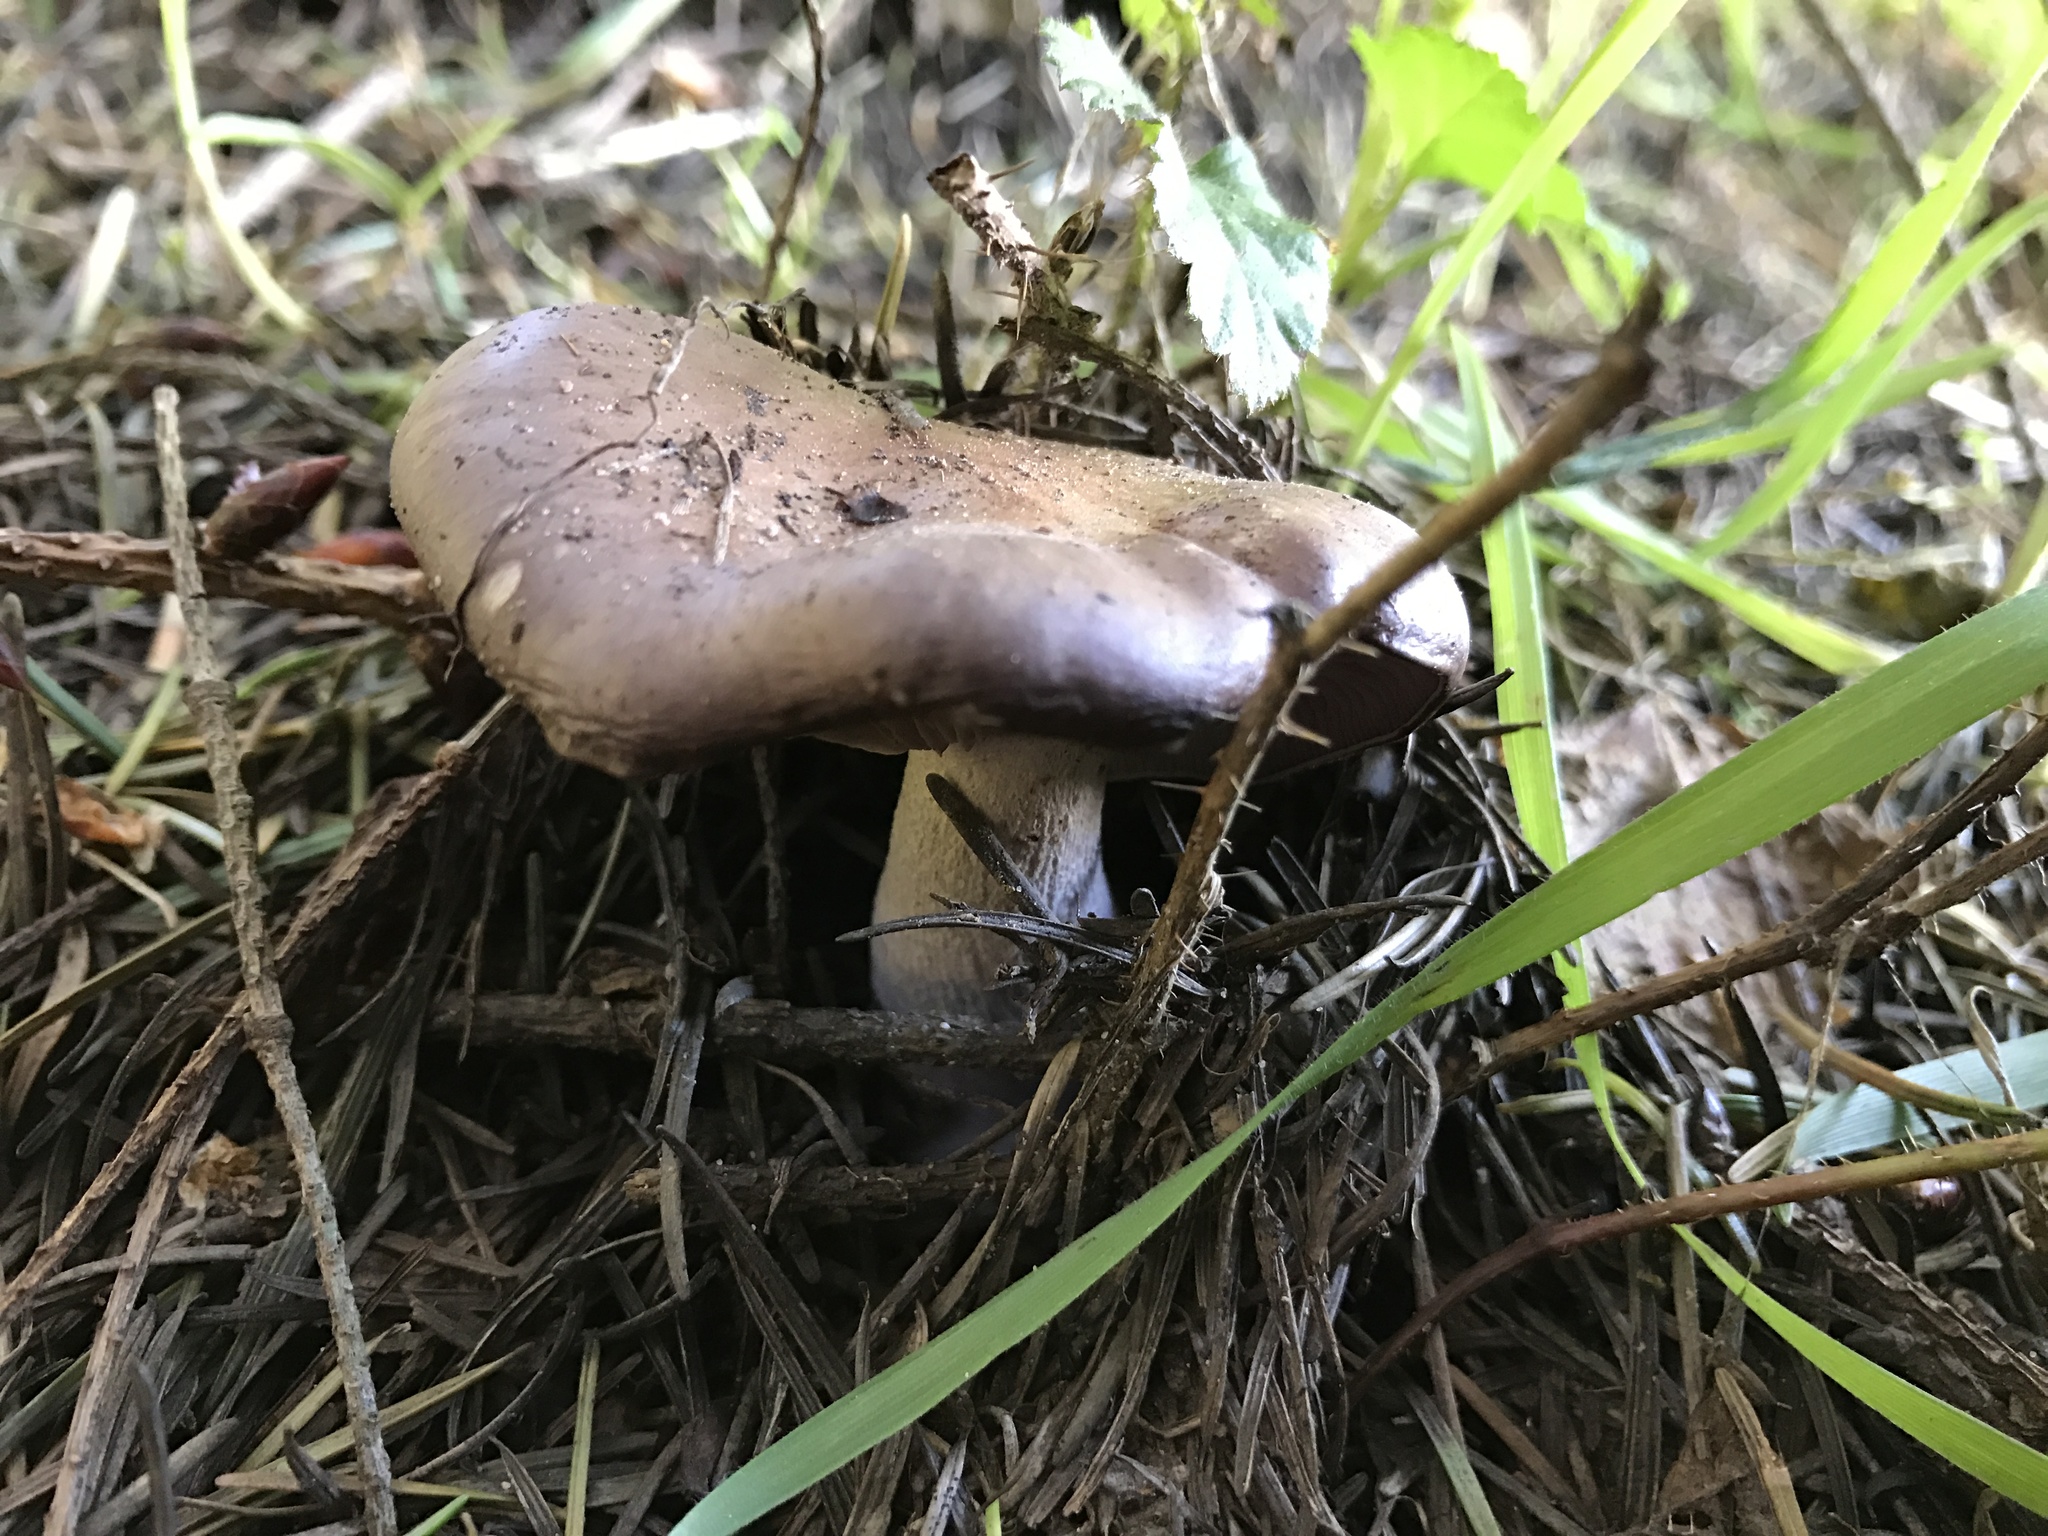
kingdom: Fungi
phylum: Basidiomycota
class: Agaricomycetes
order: Agaricales
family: Tricholomataceae
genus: Collybia
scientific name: Collybia
